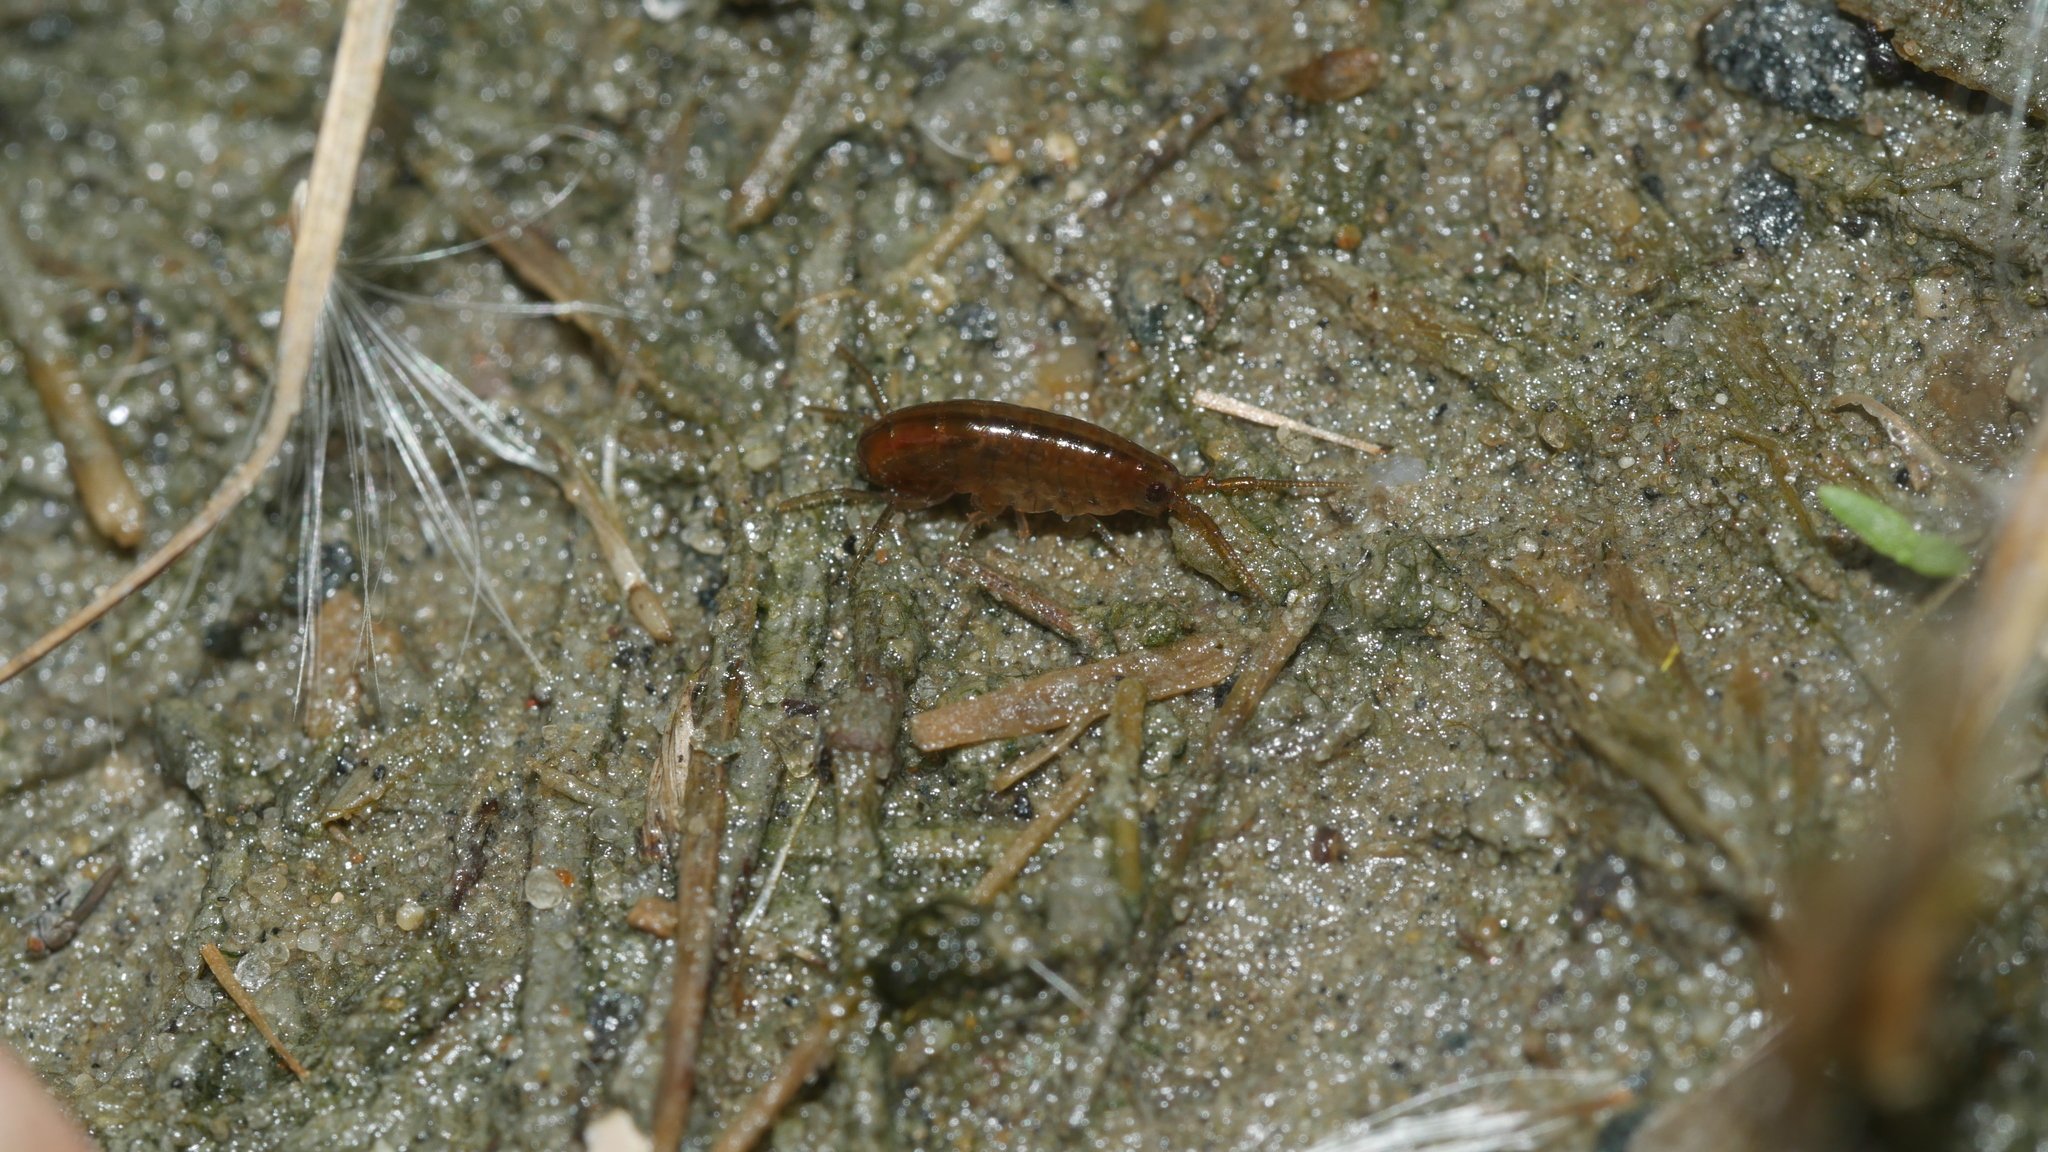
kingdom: Animalia
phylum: Arthropoda
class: Malacostraca
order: Amphipoda
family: Talitridae
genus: Speziorchestia
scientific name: Speziorchestia grillus
